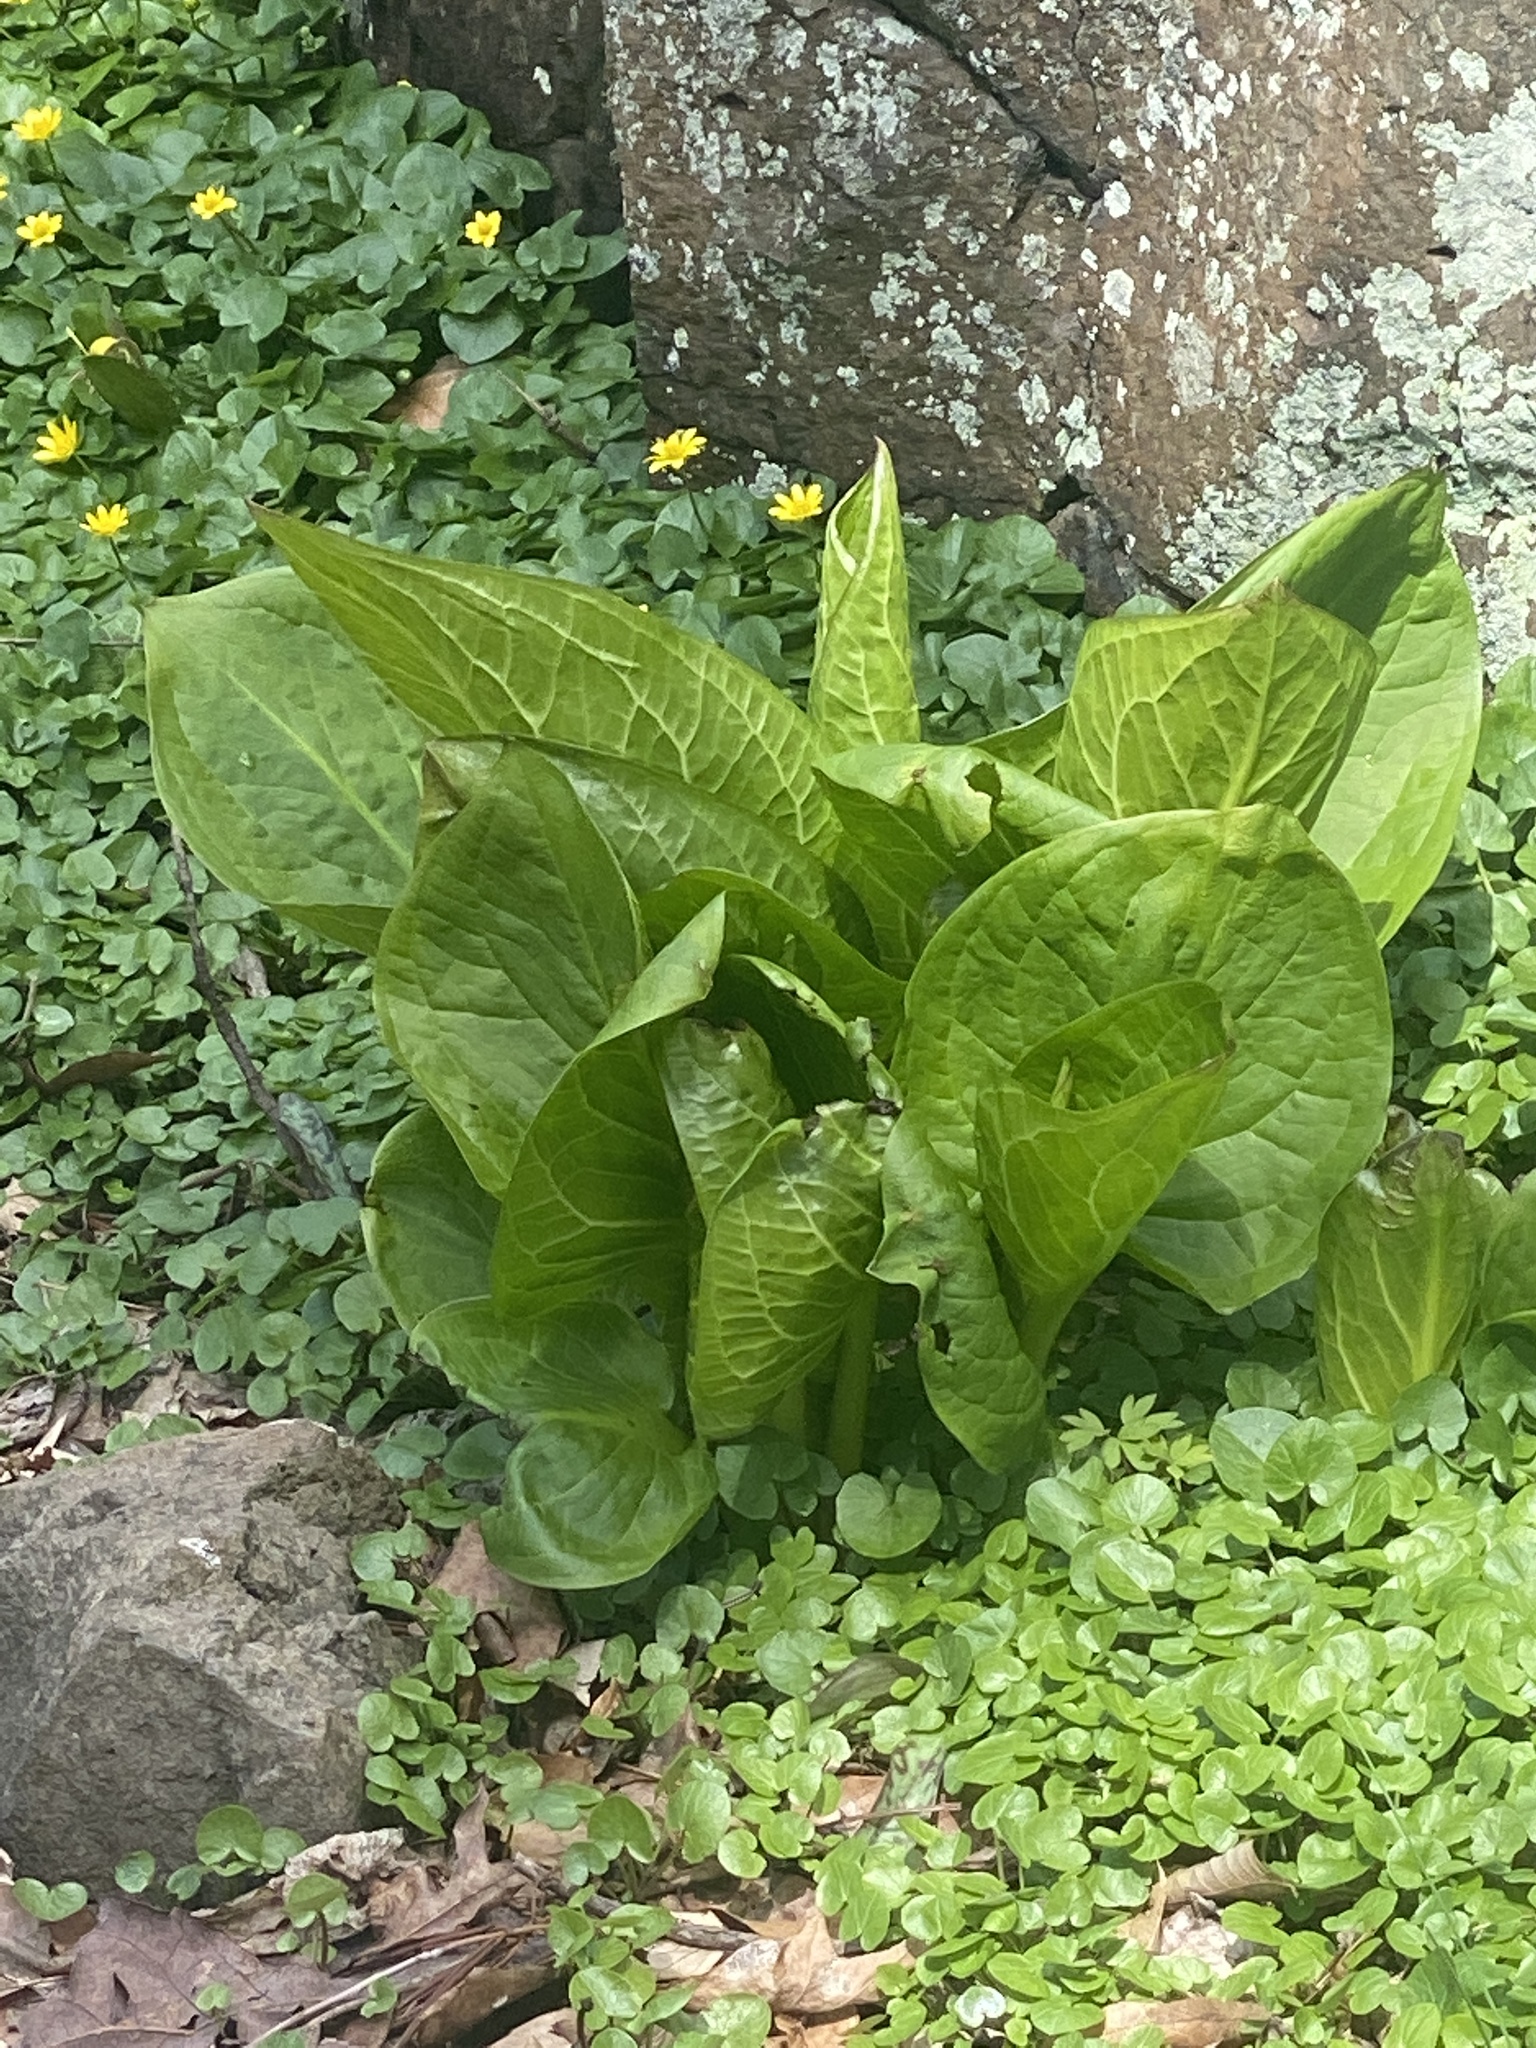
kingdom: Plantae
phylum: Tracheophyta
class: Liliopsida
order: Alismatales
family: Araceae
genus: Symplocarpus
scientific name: Symplocarpus foetidus
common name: Eastern skunk cabbage
